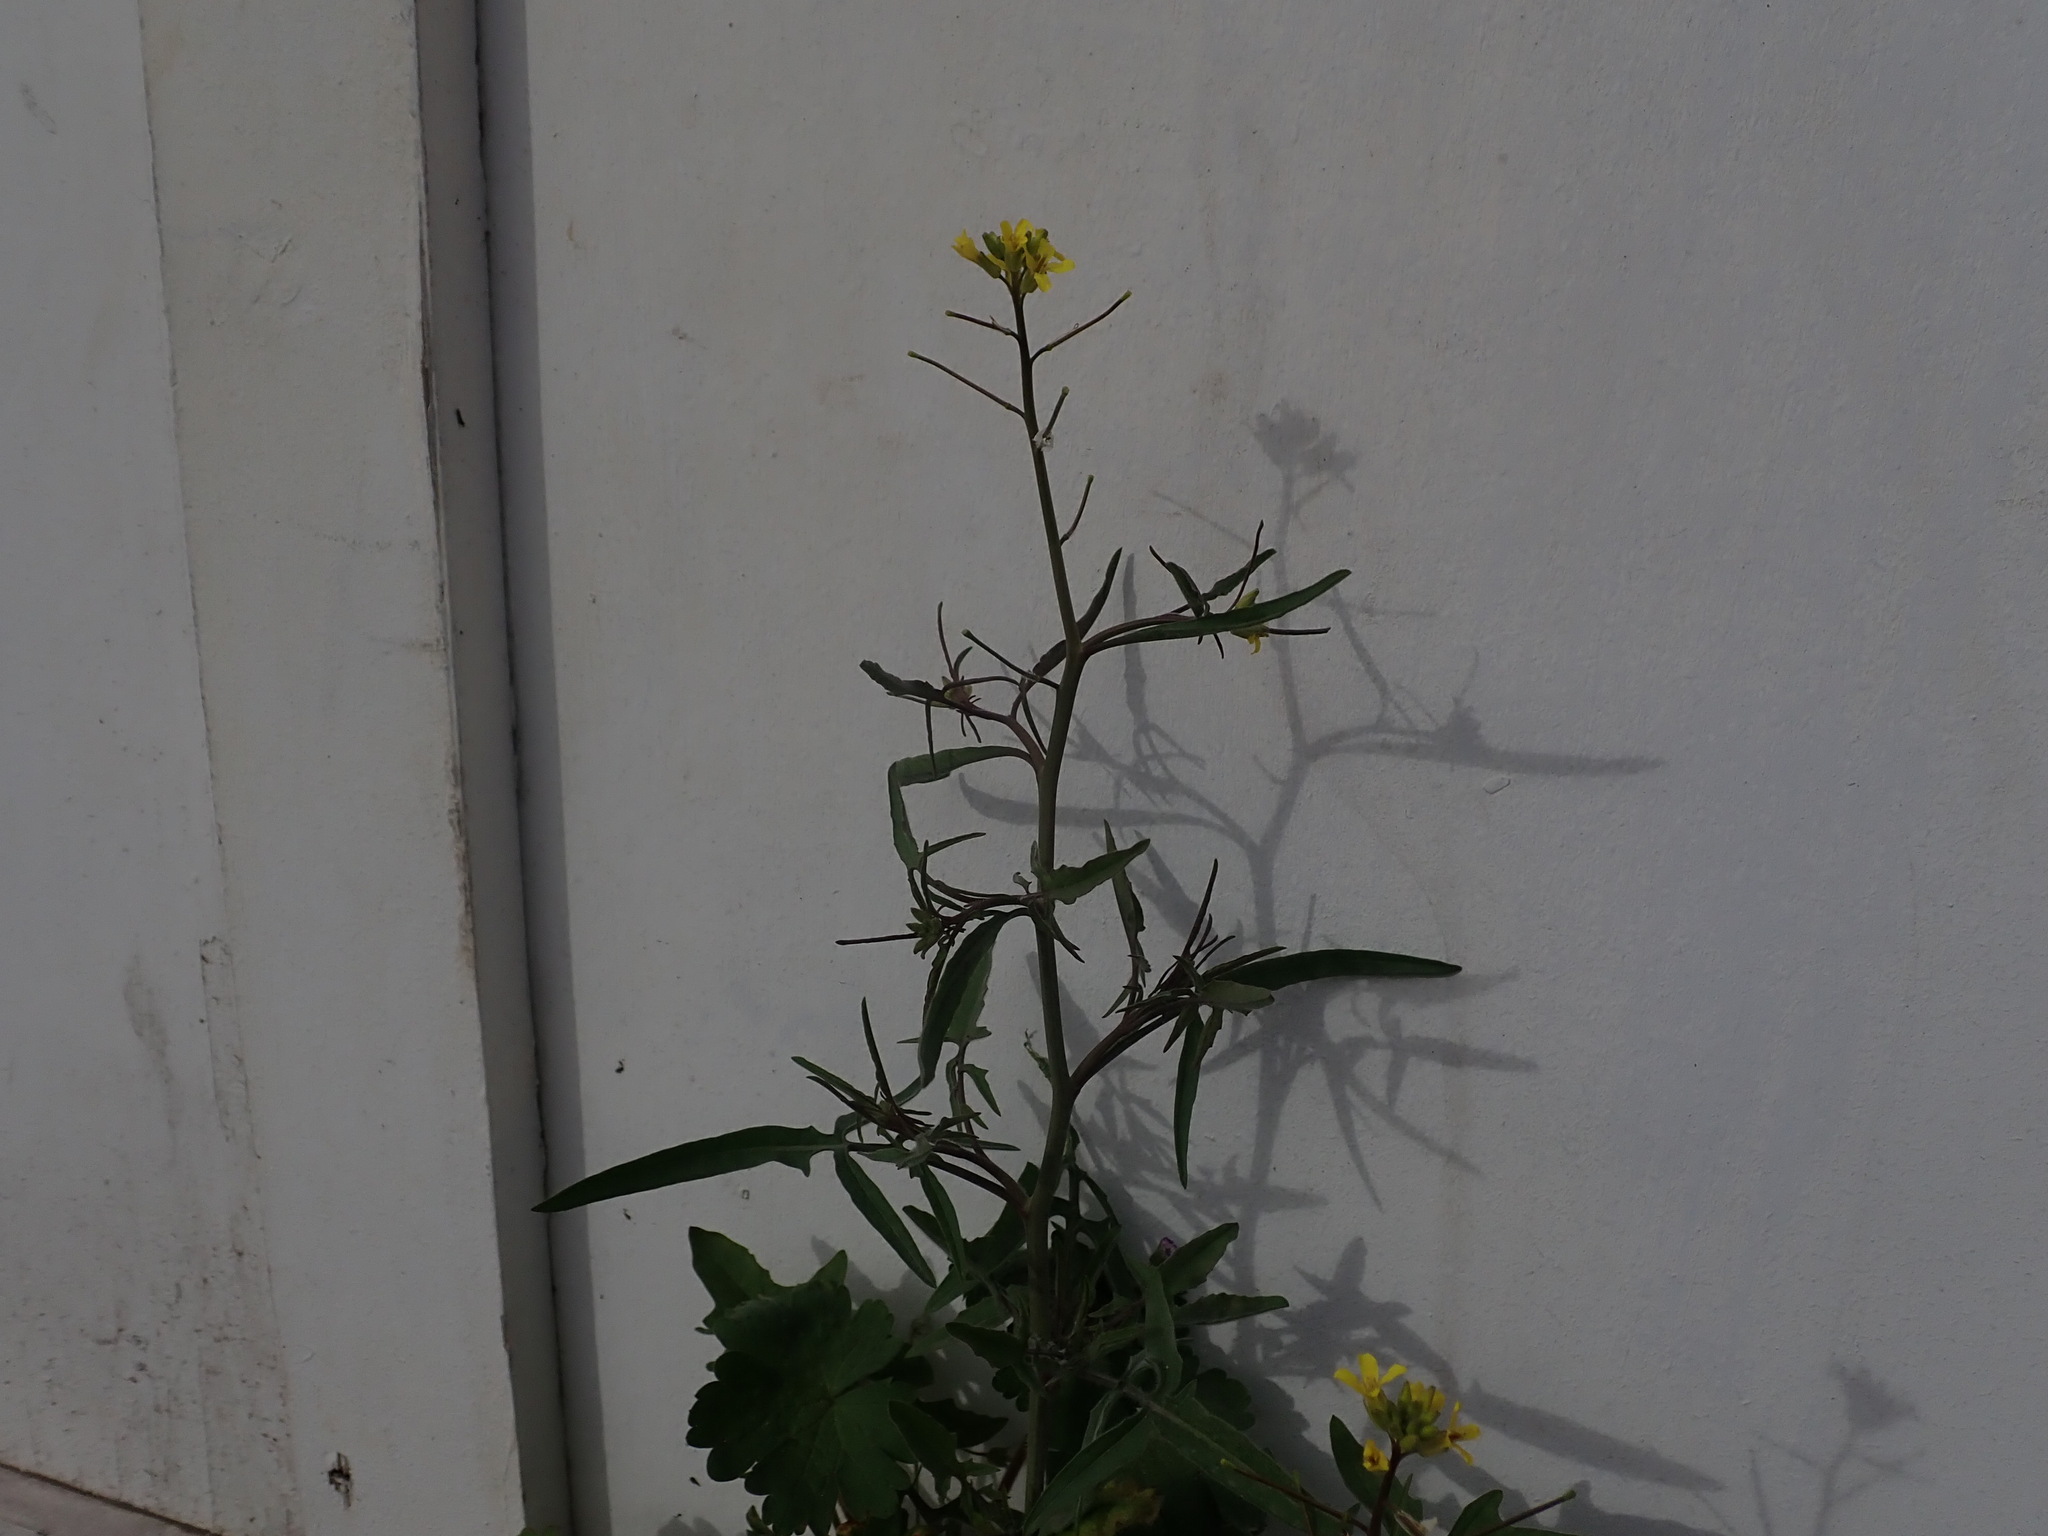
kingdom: Plantae
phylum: Tracheophyta
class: Magnoliopsida
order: Brassicales
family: Brassicaceae
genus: Sisymbrium
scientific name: Sisymbrium orientale
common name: Eastern rocket
